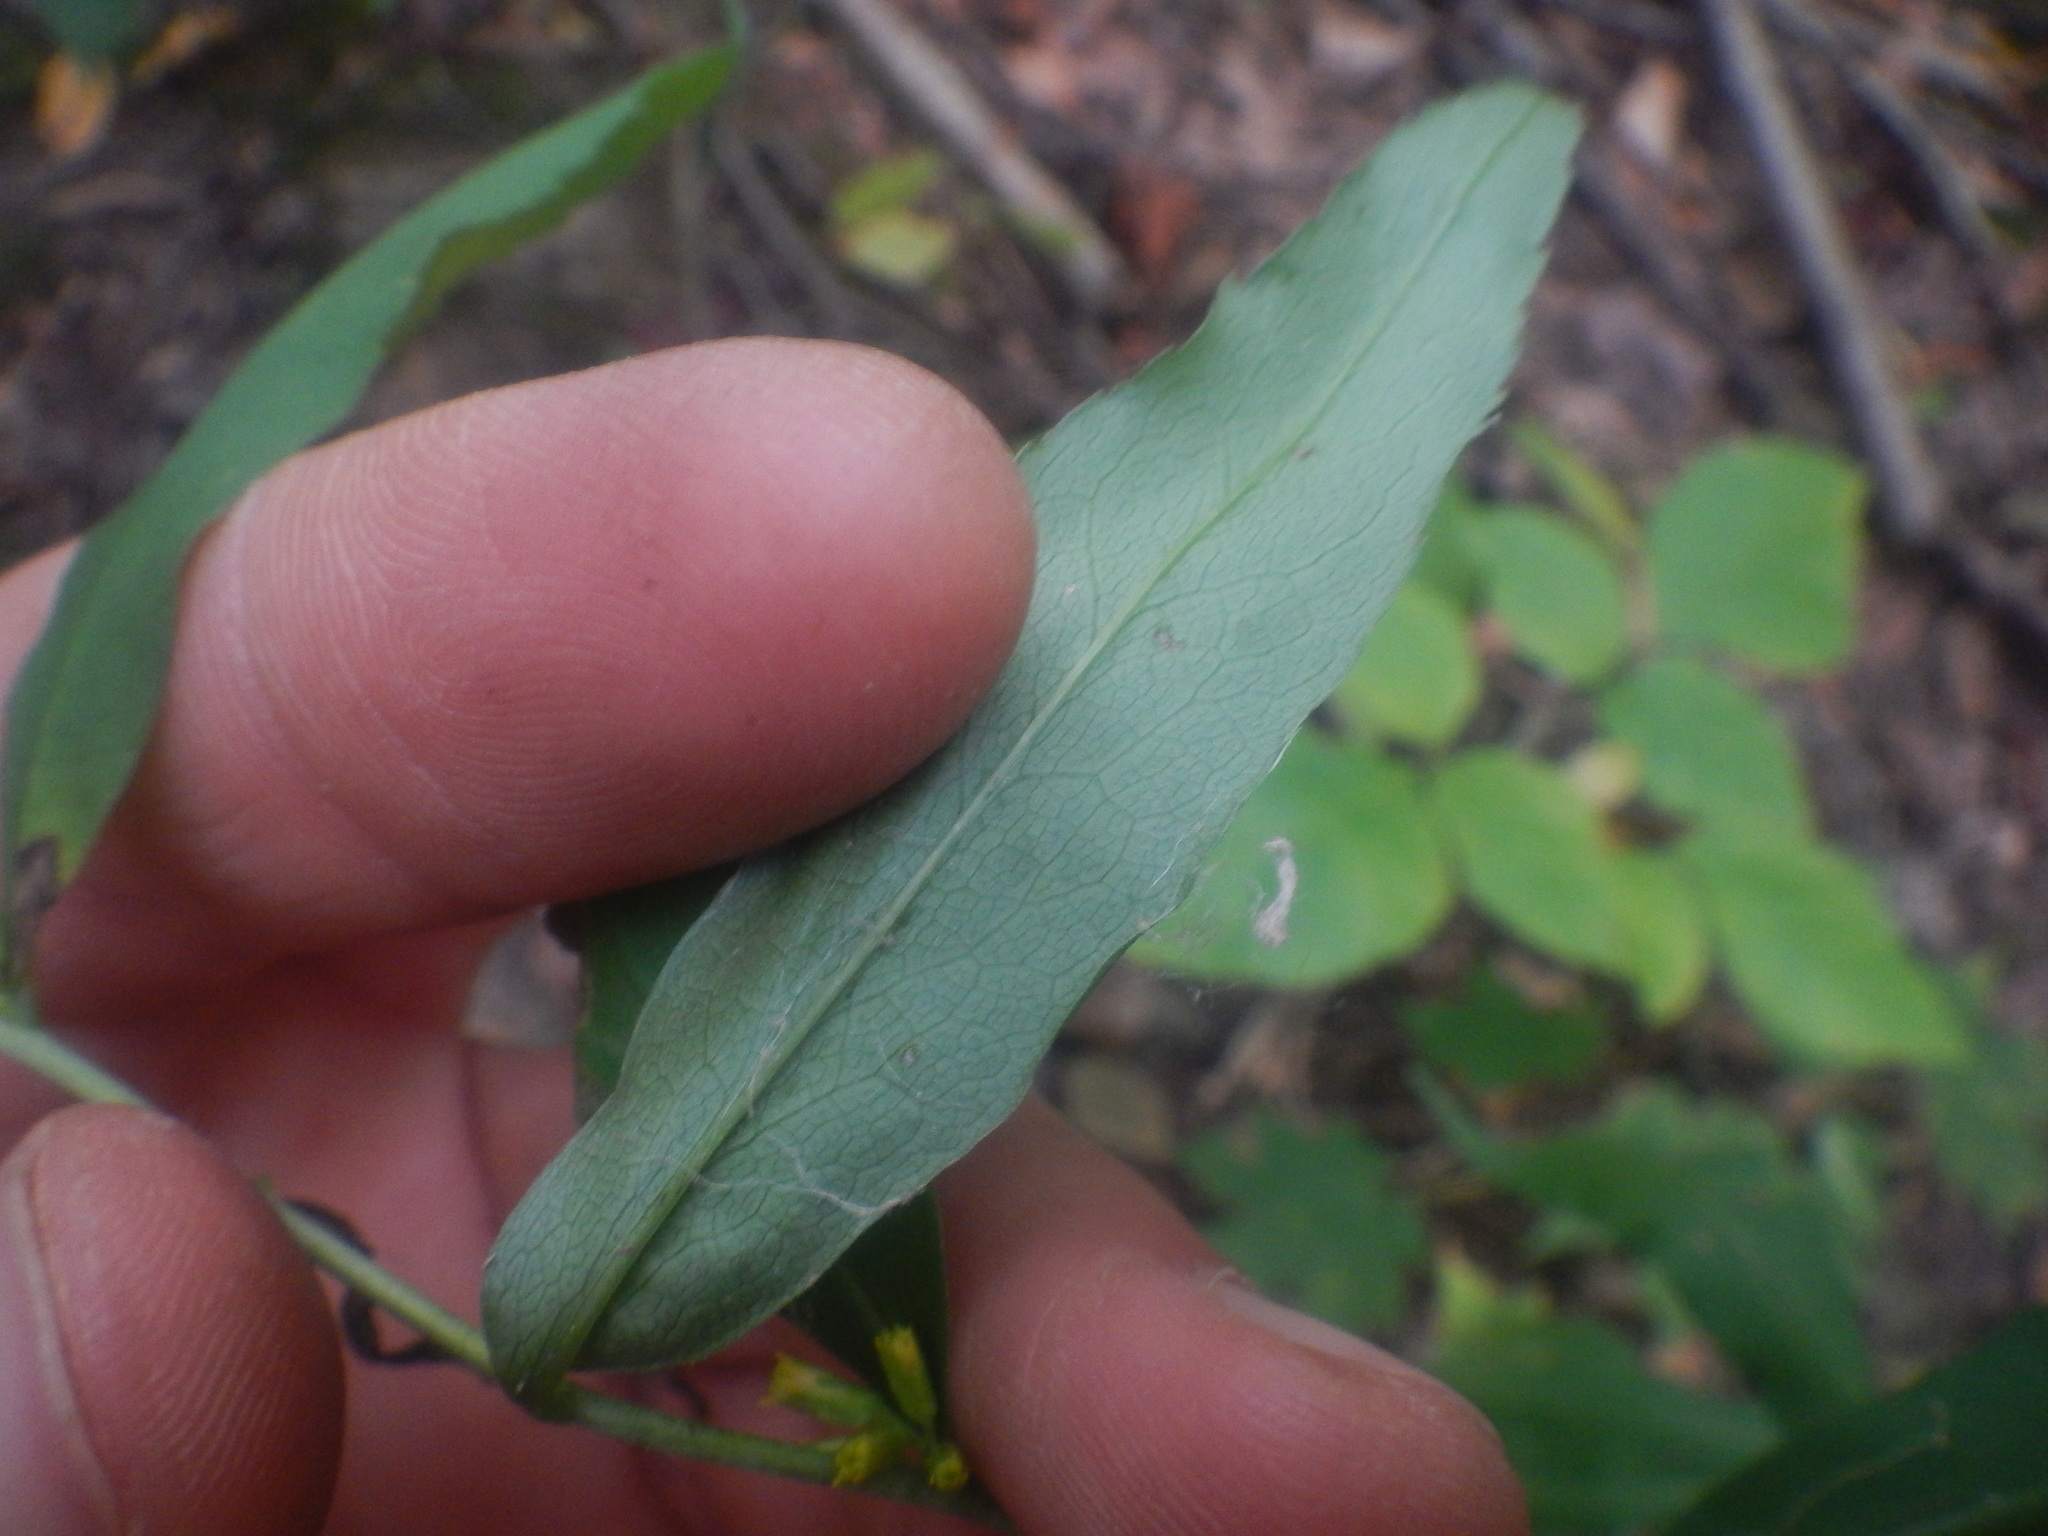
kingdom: Plantae
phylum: Tracheophyta
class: Magnoliopsida
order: Asterales
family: Asteraceae
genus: Solidago
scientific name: Solidago caesia
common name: Woodland goldenrod
